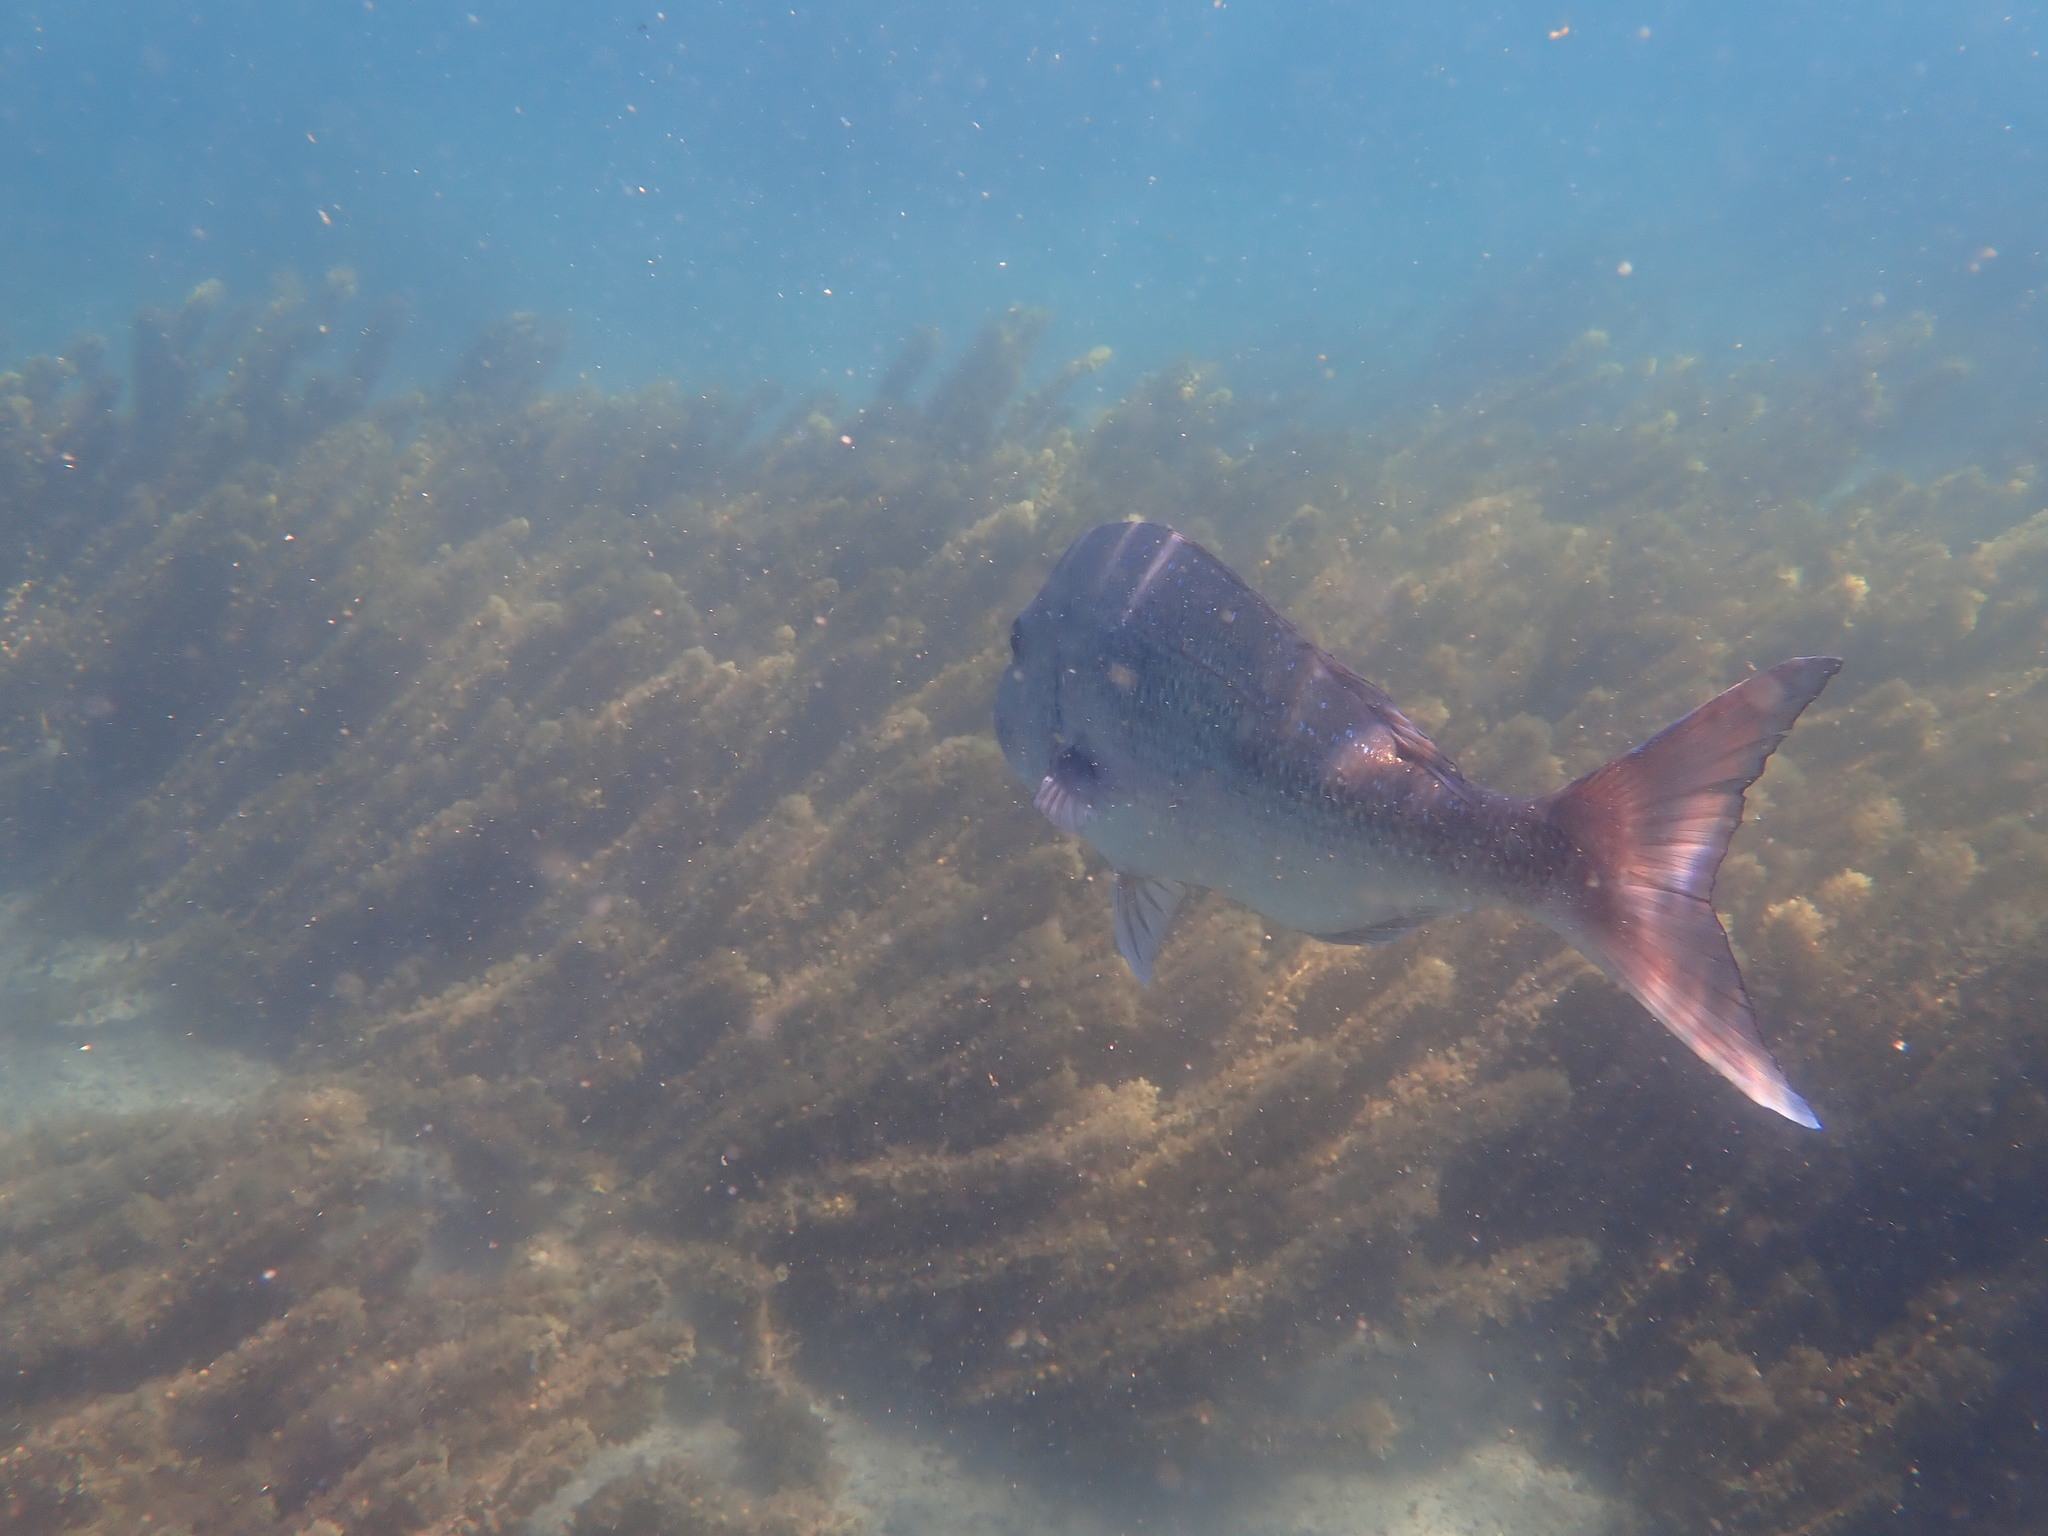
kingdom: Animalia
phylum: Chordata
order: Perciformes
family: Sparidae
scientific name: Sparidae
